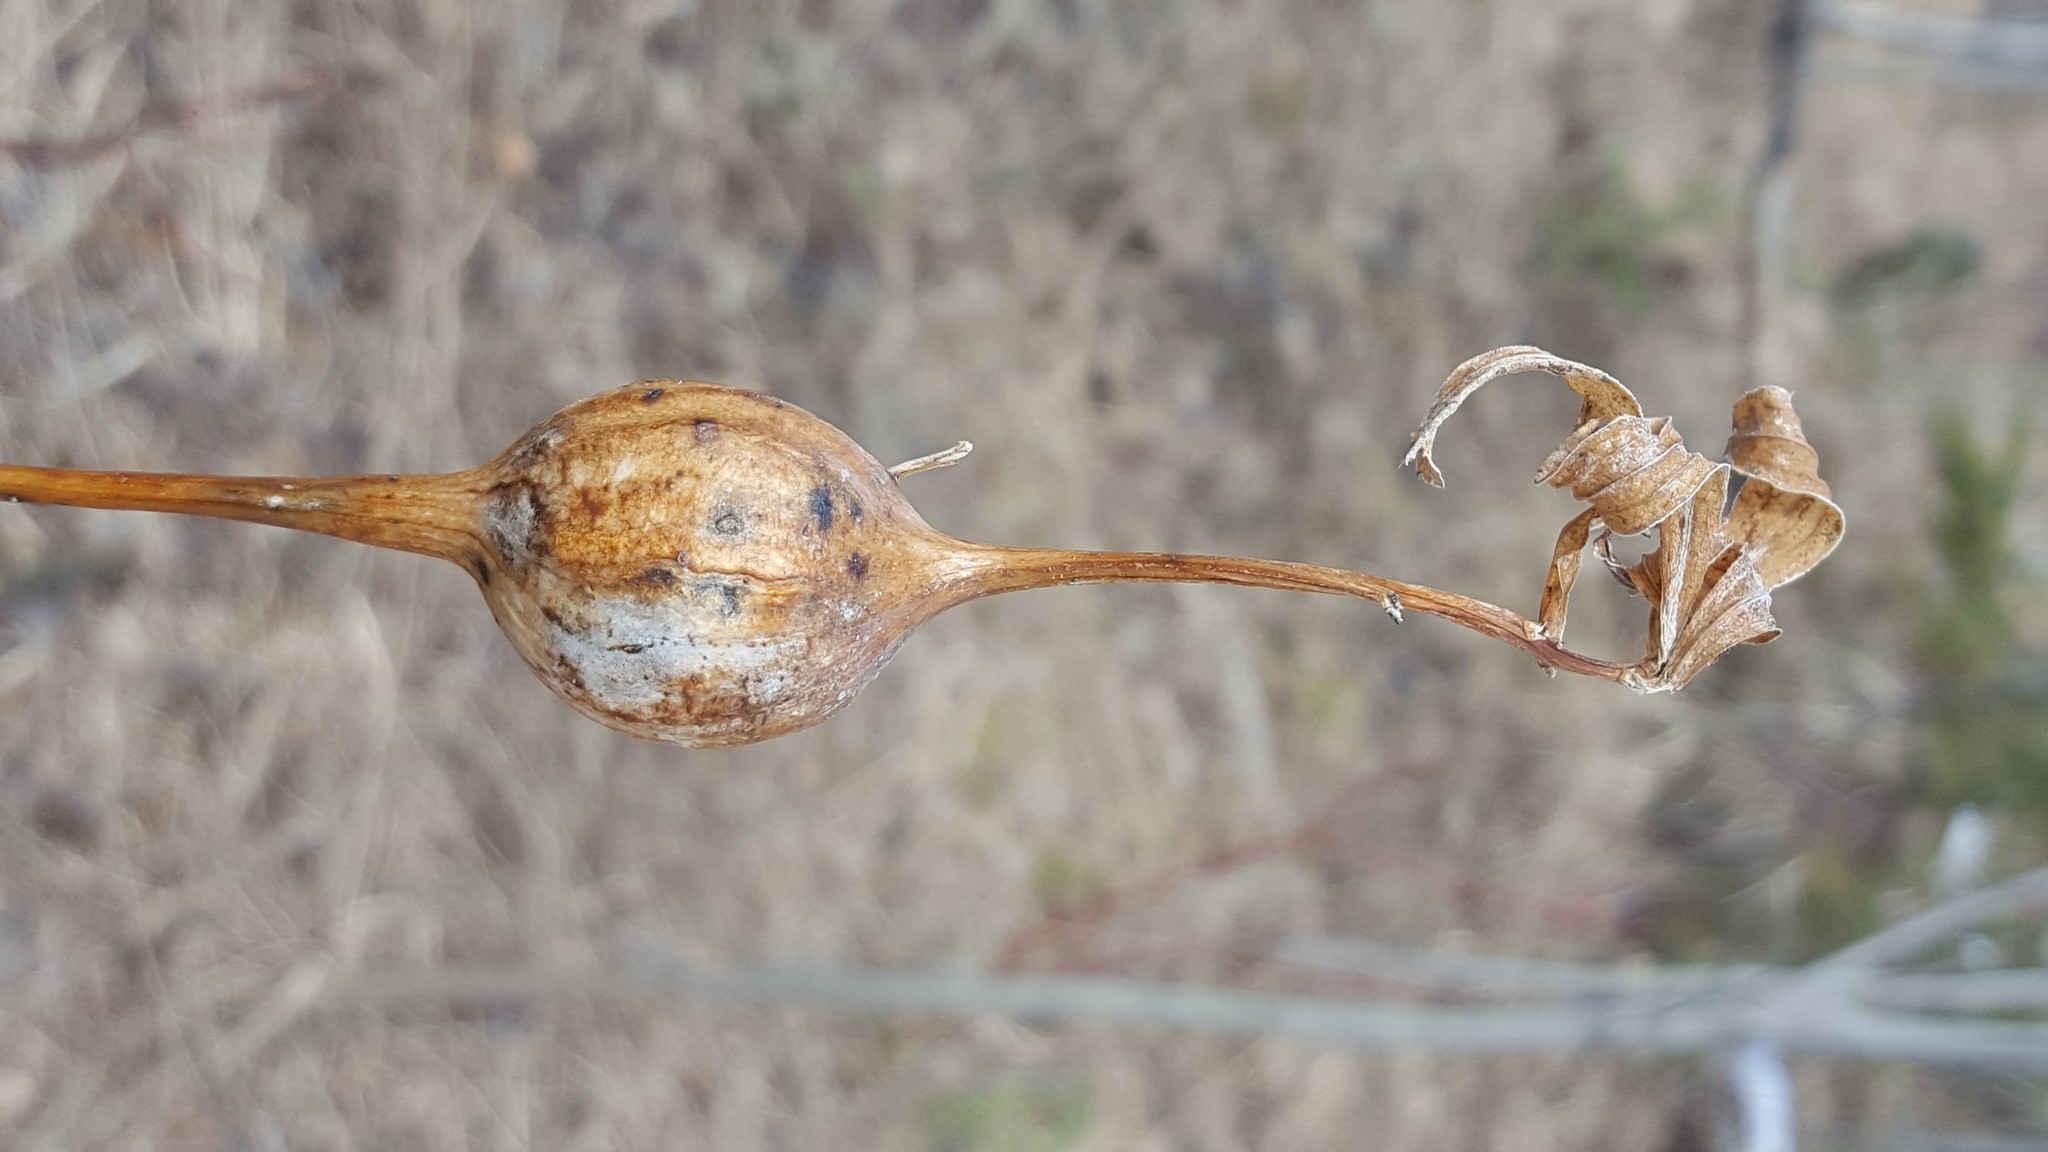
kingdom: Animalia
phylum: Arthropoda
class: Insecta
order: Diptera
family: Tephritidae
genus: Eurosta
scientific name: Eurosta solidaginis
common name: Goldenrod gall fly
